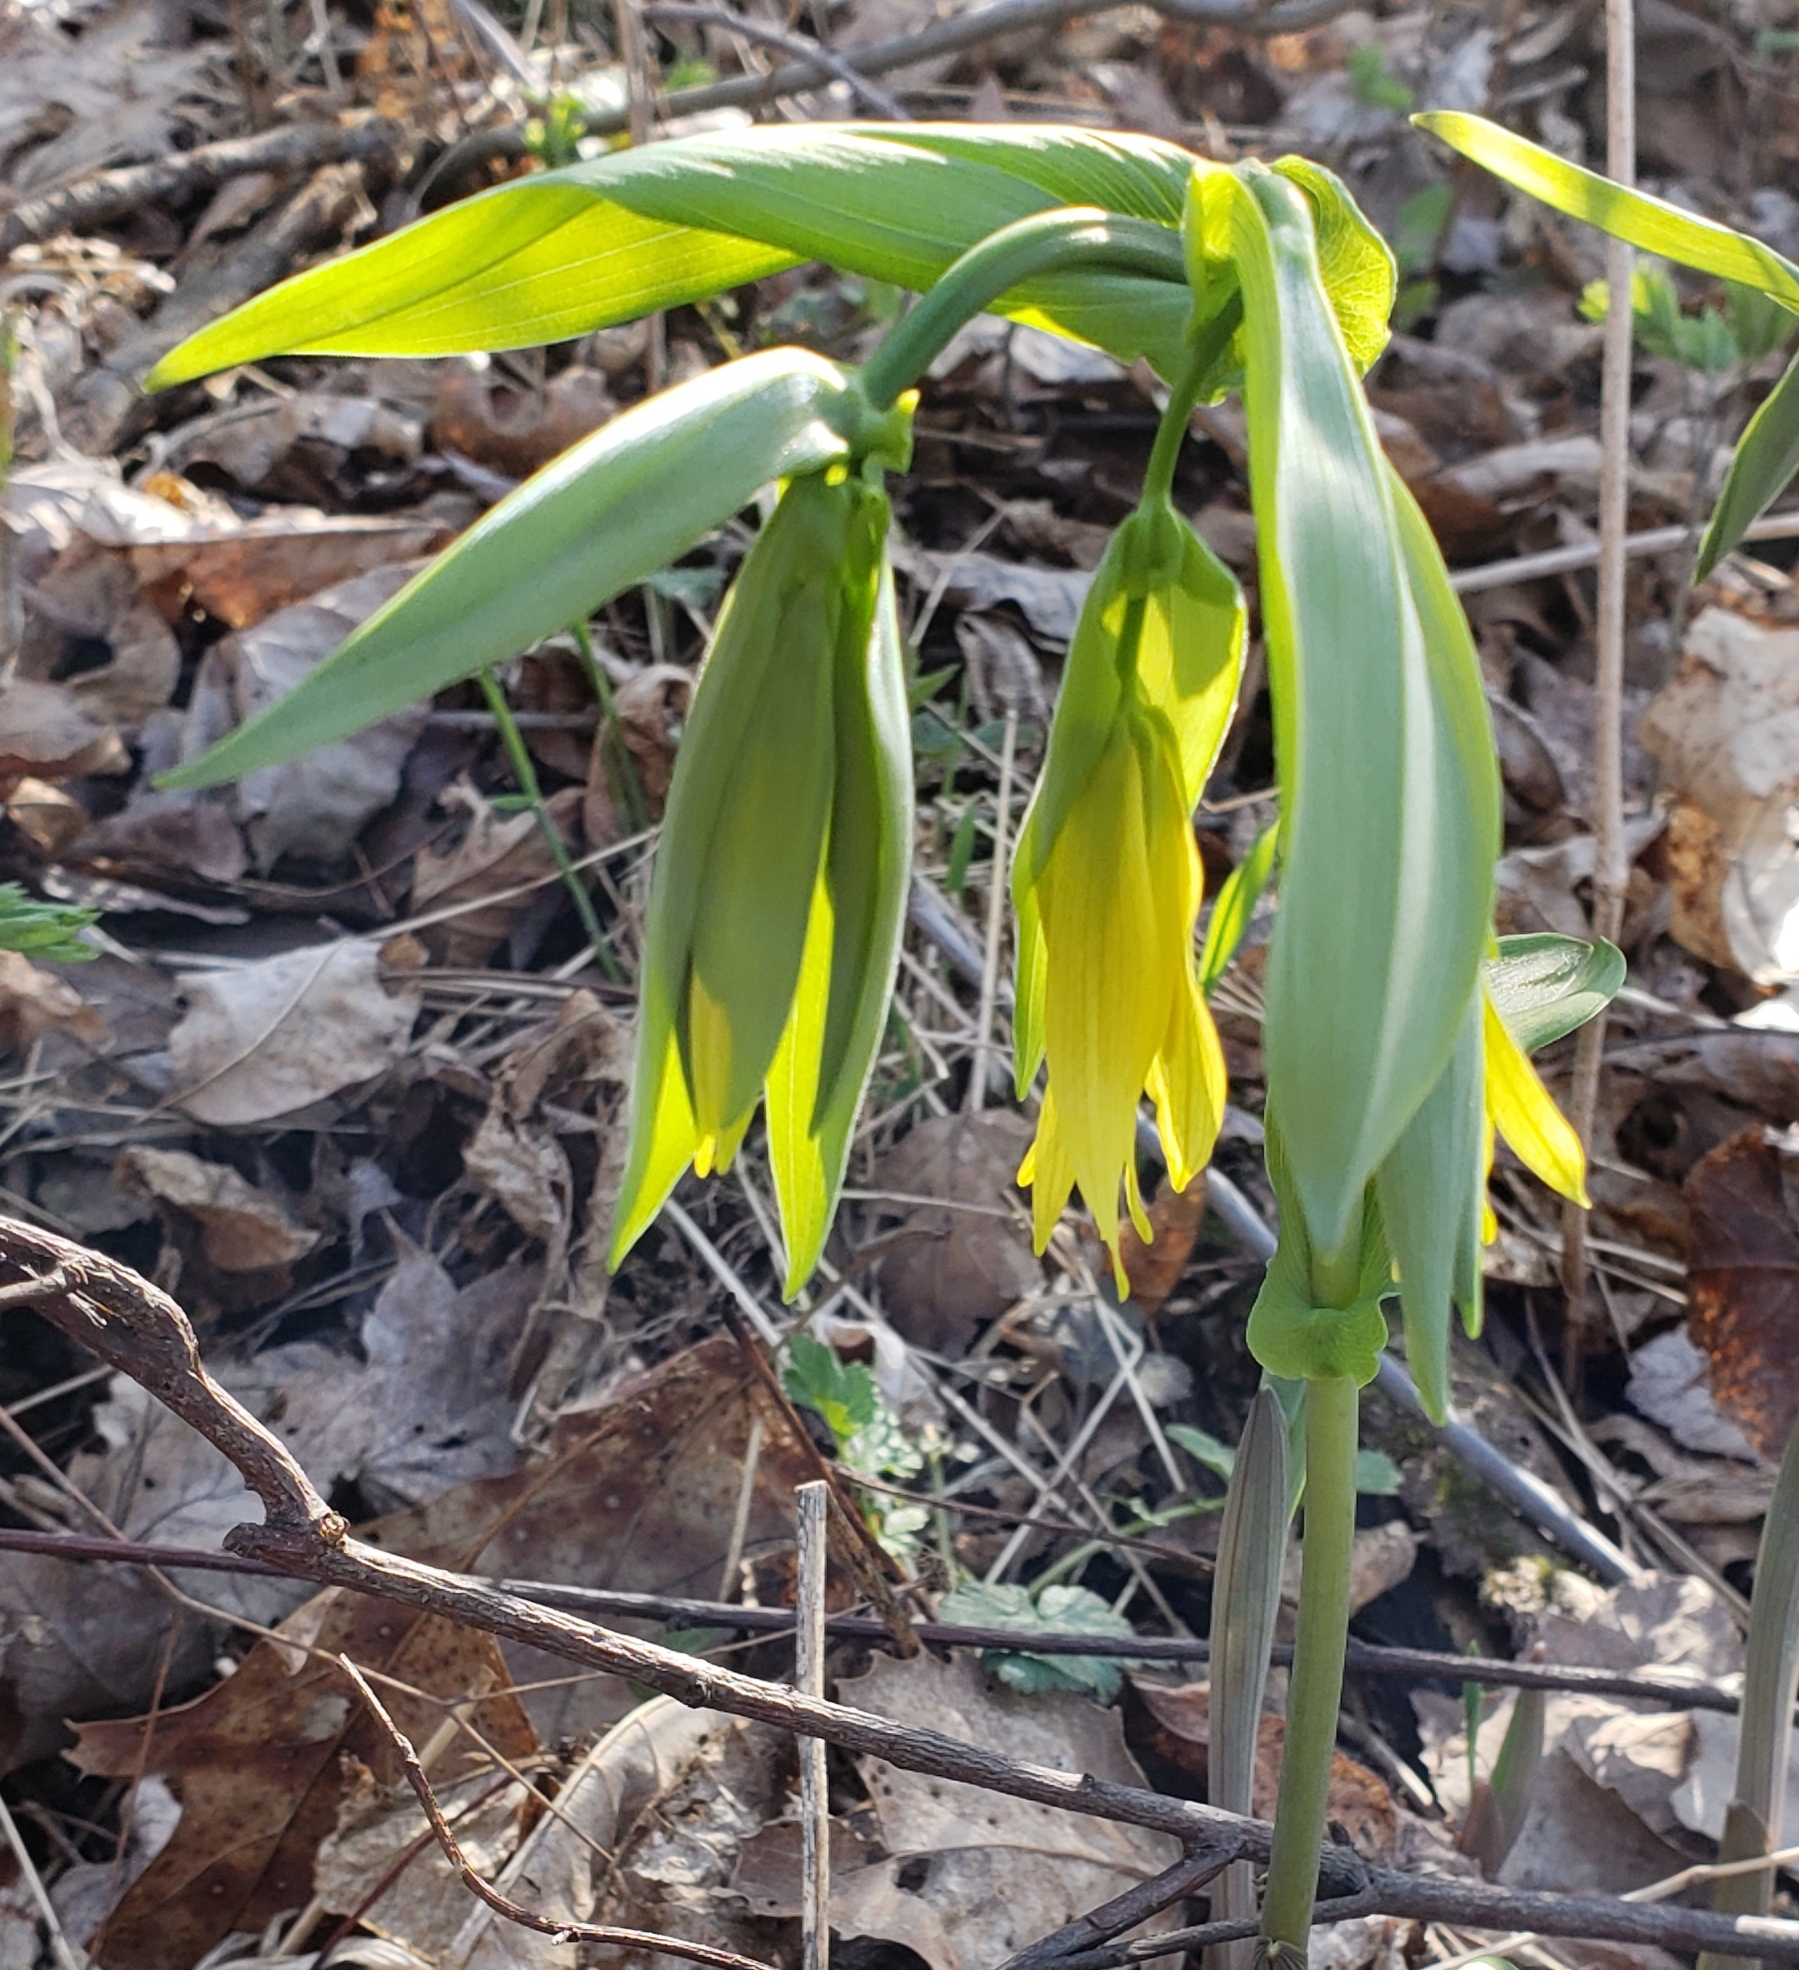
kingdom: Plantae
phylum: Tracheophyta
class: Liliopsida
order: Liliales
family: Colchicaceae
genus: Uvularia
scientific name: Uvularia grandiflora
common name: Bellwort
